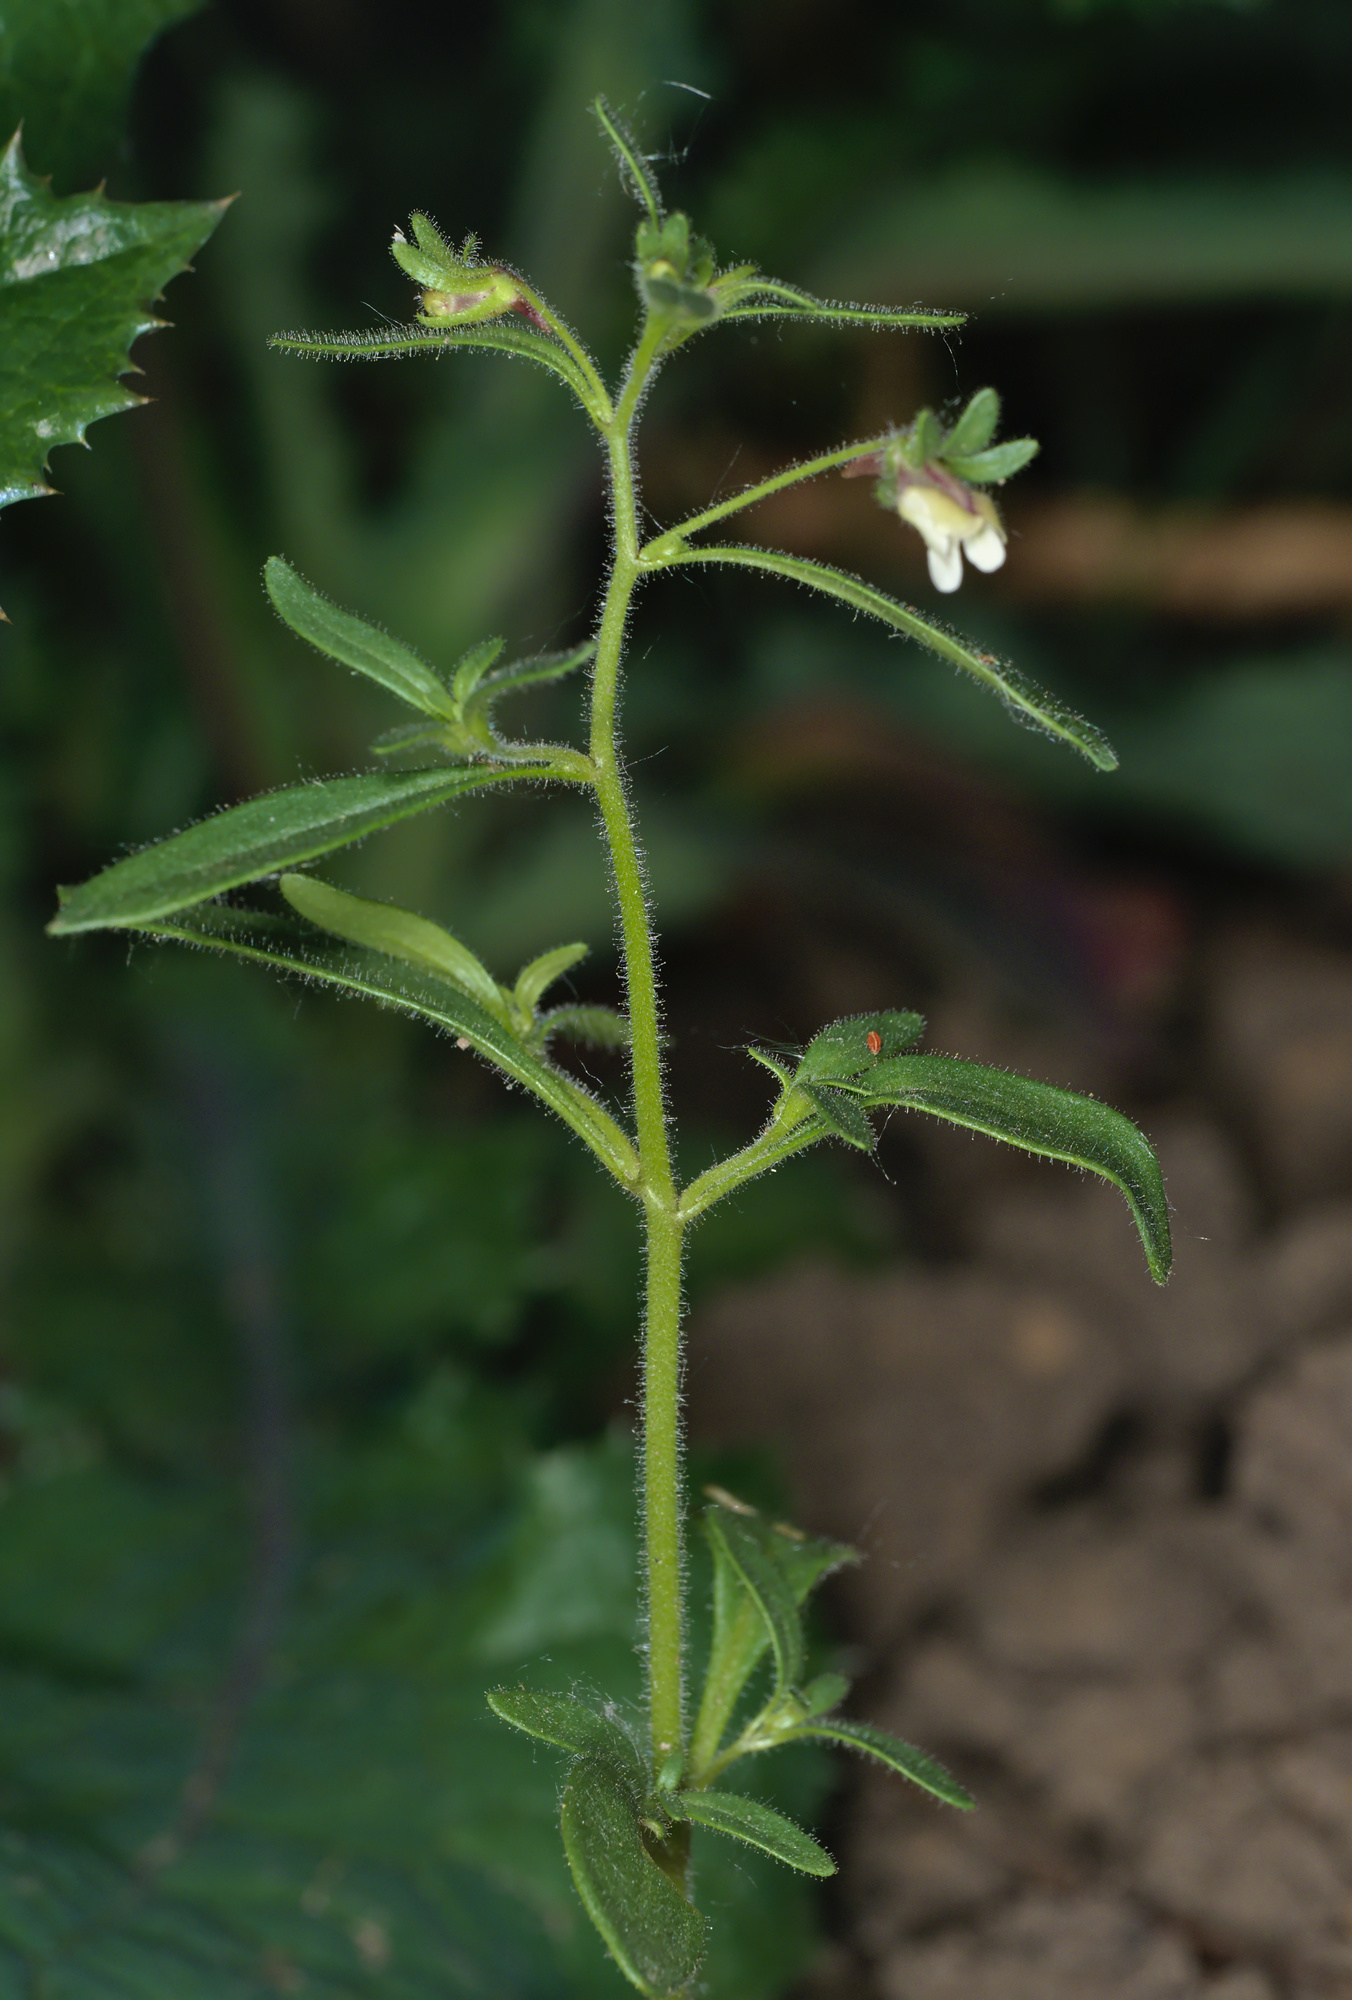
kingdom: Plantae
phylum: Tracheophyta
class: Magnoliopsida
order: Lamiales
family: Plantaginaceae
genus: Chaenorhinum
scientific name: Chaenorhinum minus
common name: Dwarf snapdragon
